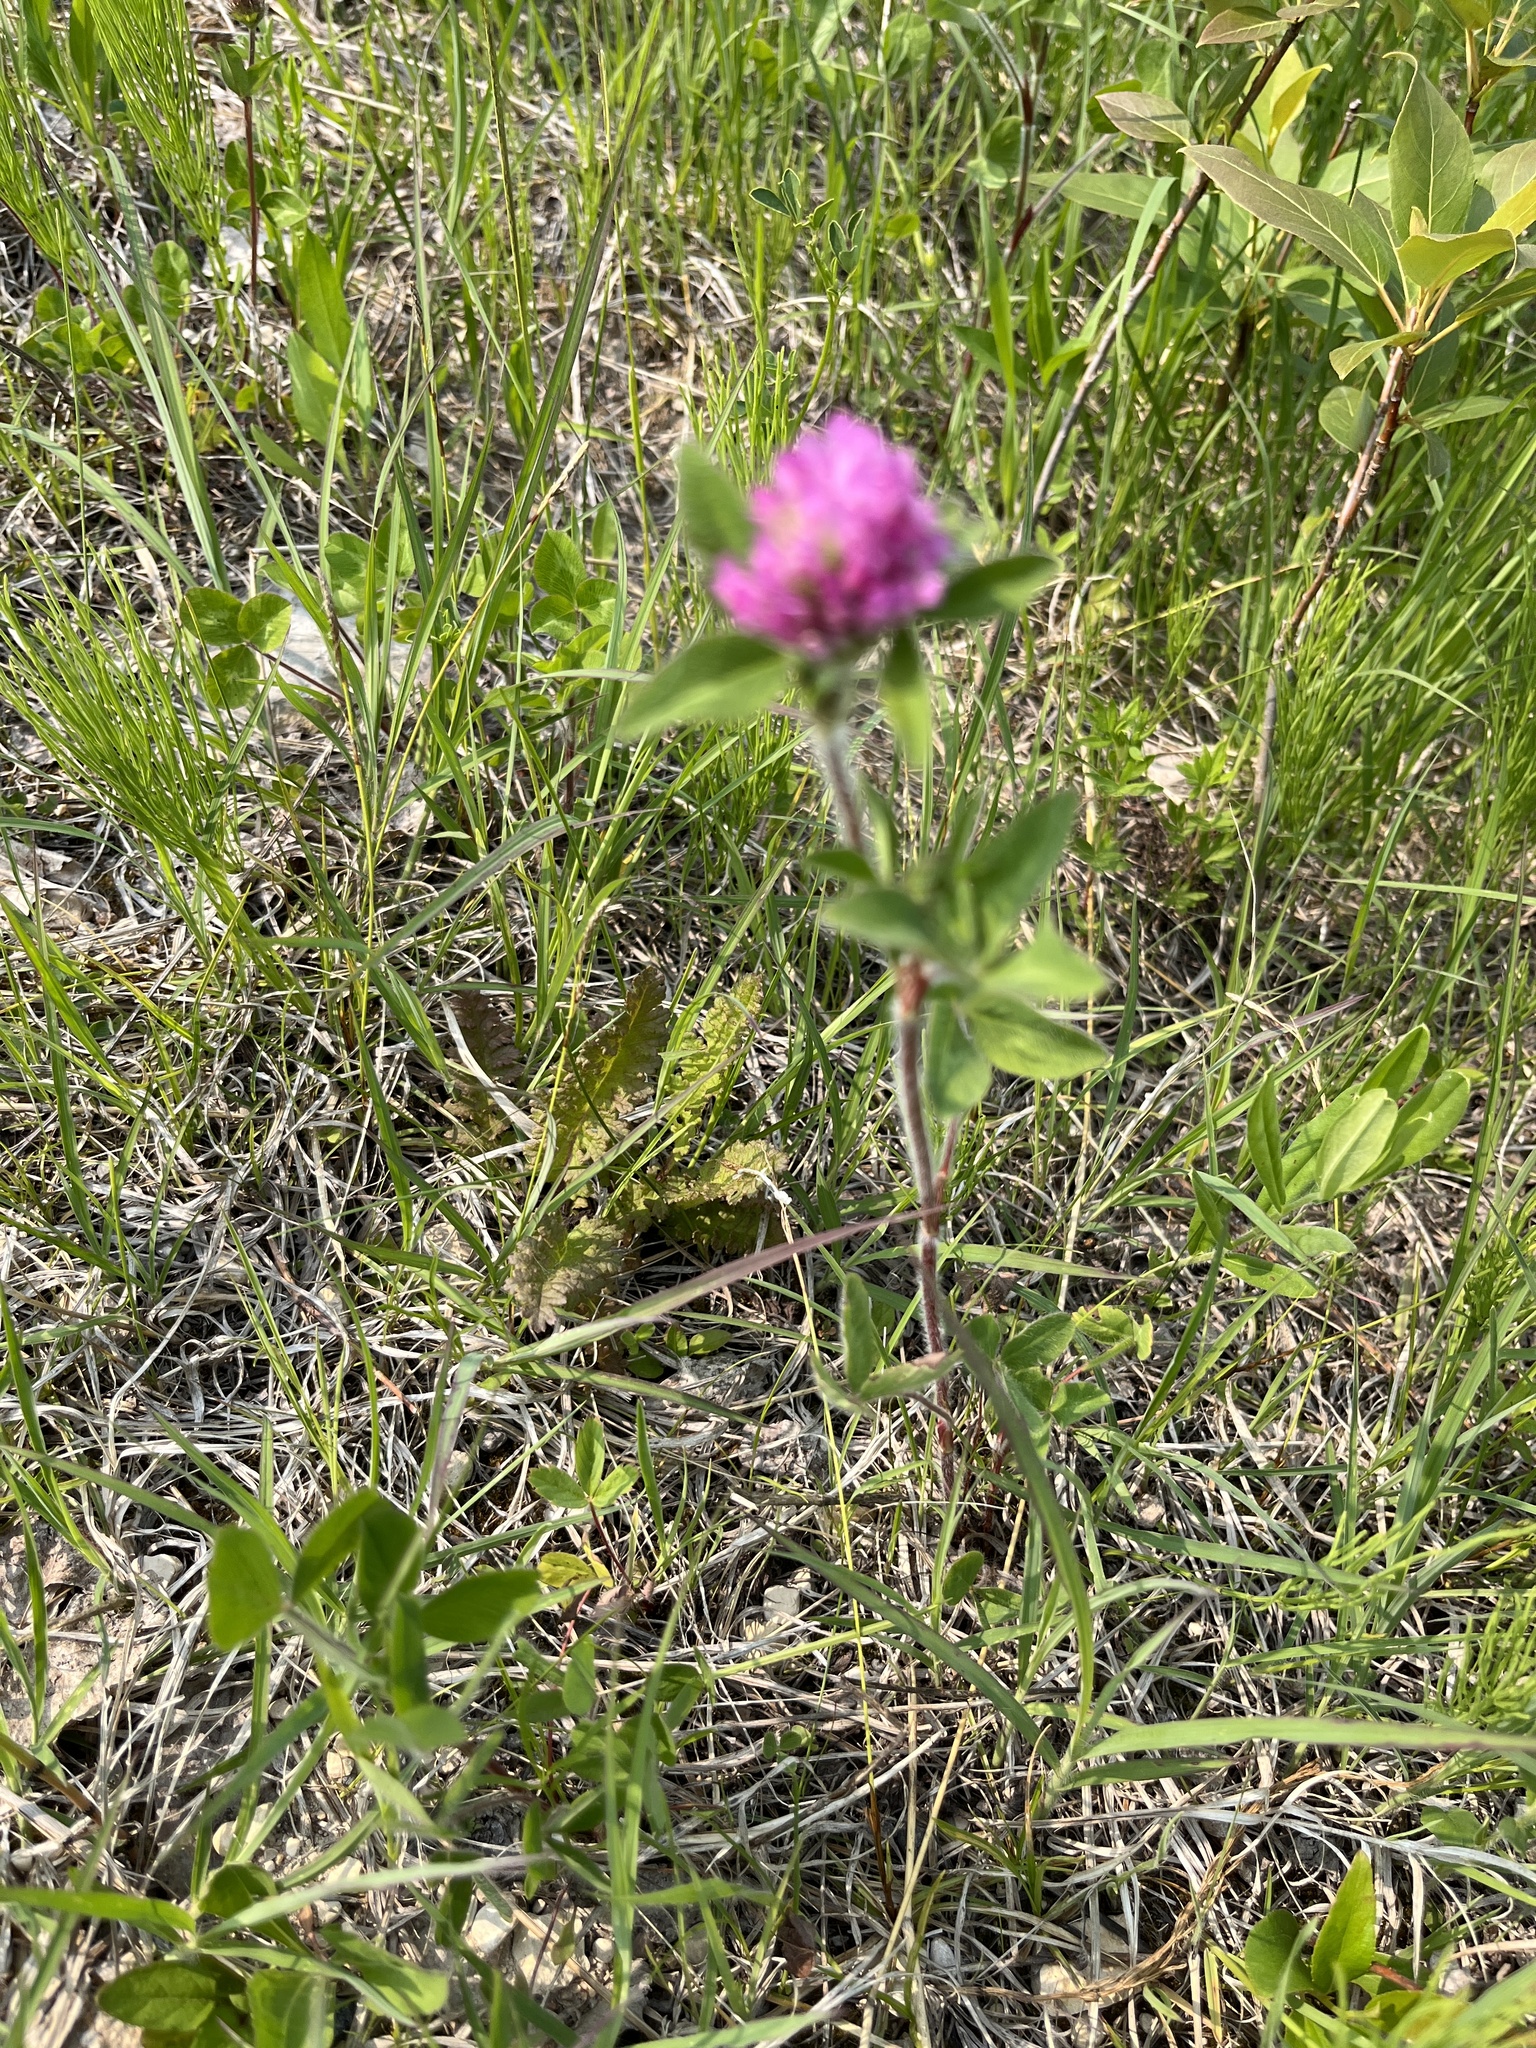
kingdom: Plantae
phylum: Tracheophyta
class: Magnoliopsida
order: Fabales
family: Fabaceae
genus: Trifolium
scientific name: Trifolium pratense
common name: Red clover
